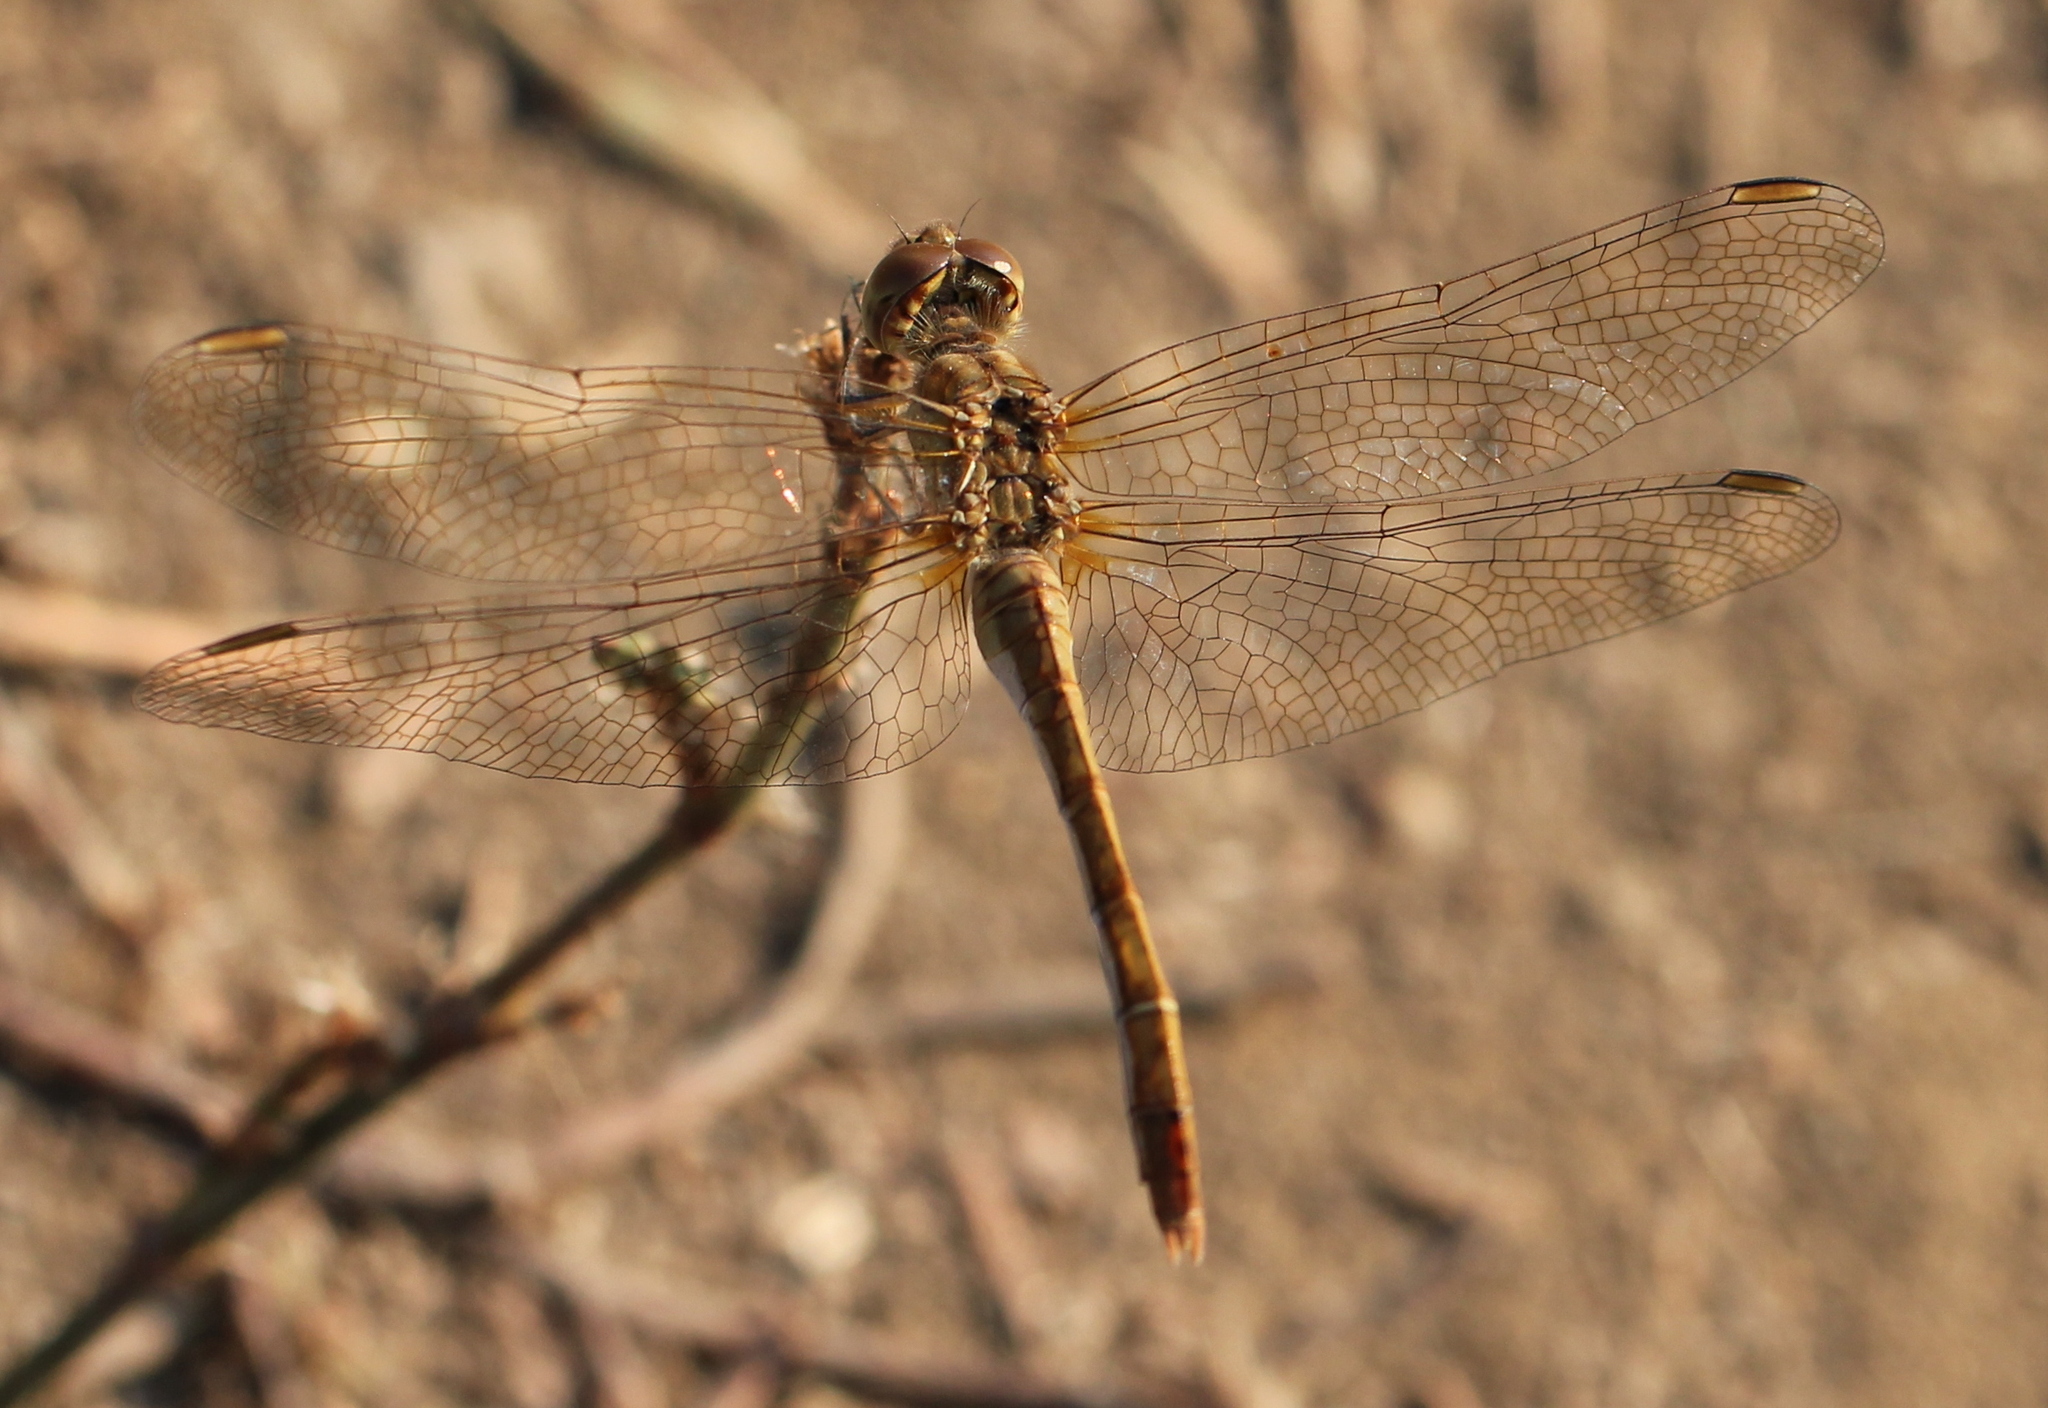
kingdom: Animalia
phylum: Arthropoda
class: Insecta
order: Odonata
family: Libellulidae
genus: Sympetrum
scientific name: Sympetrum meridionale
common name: Southern darter
